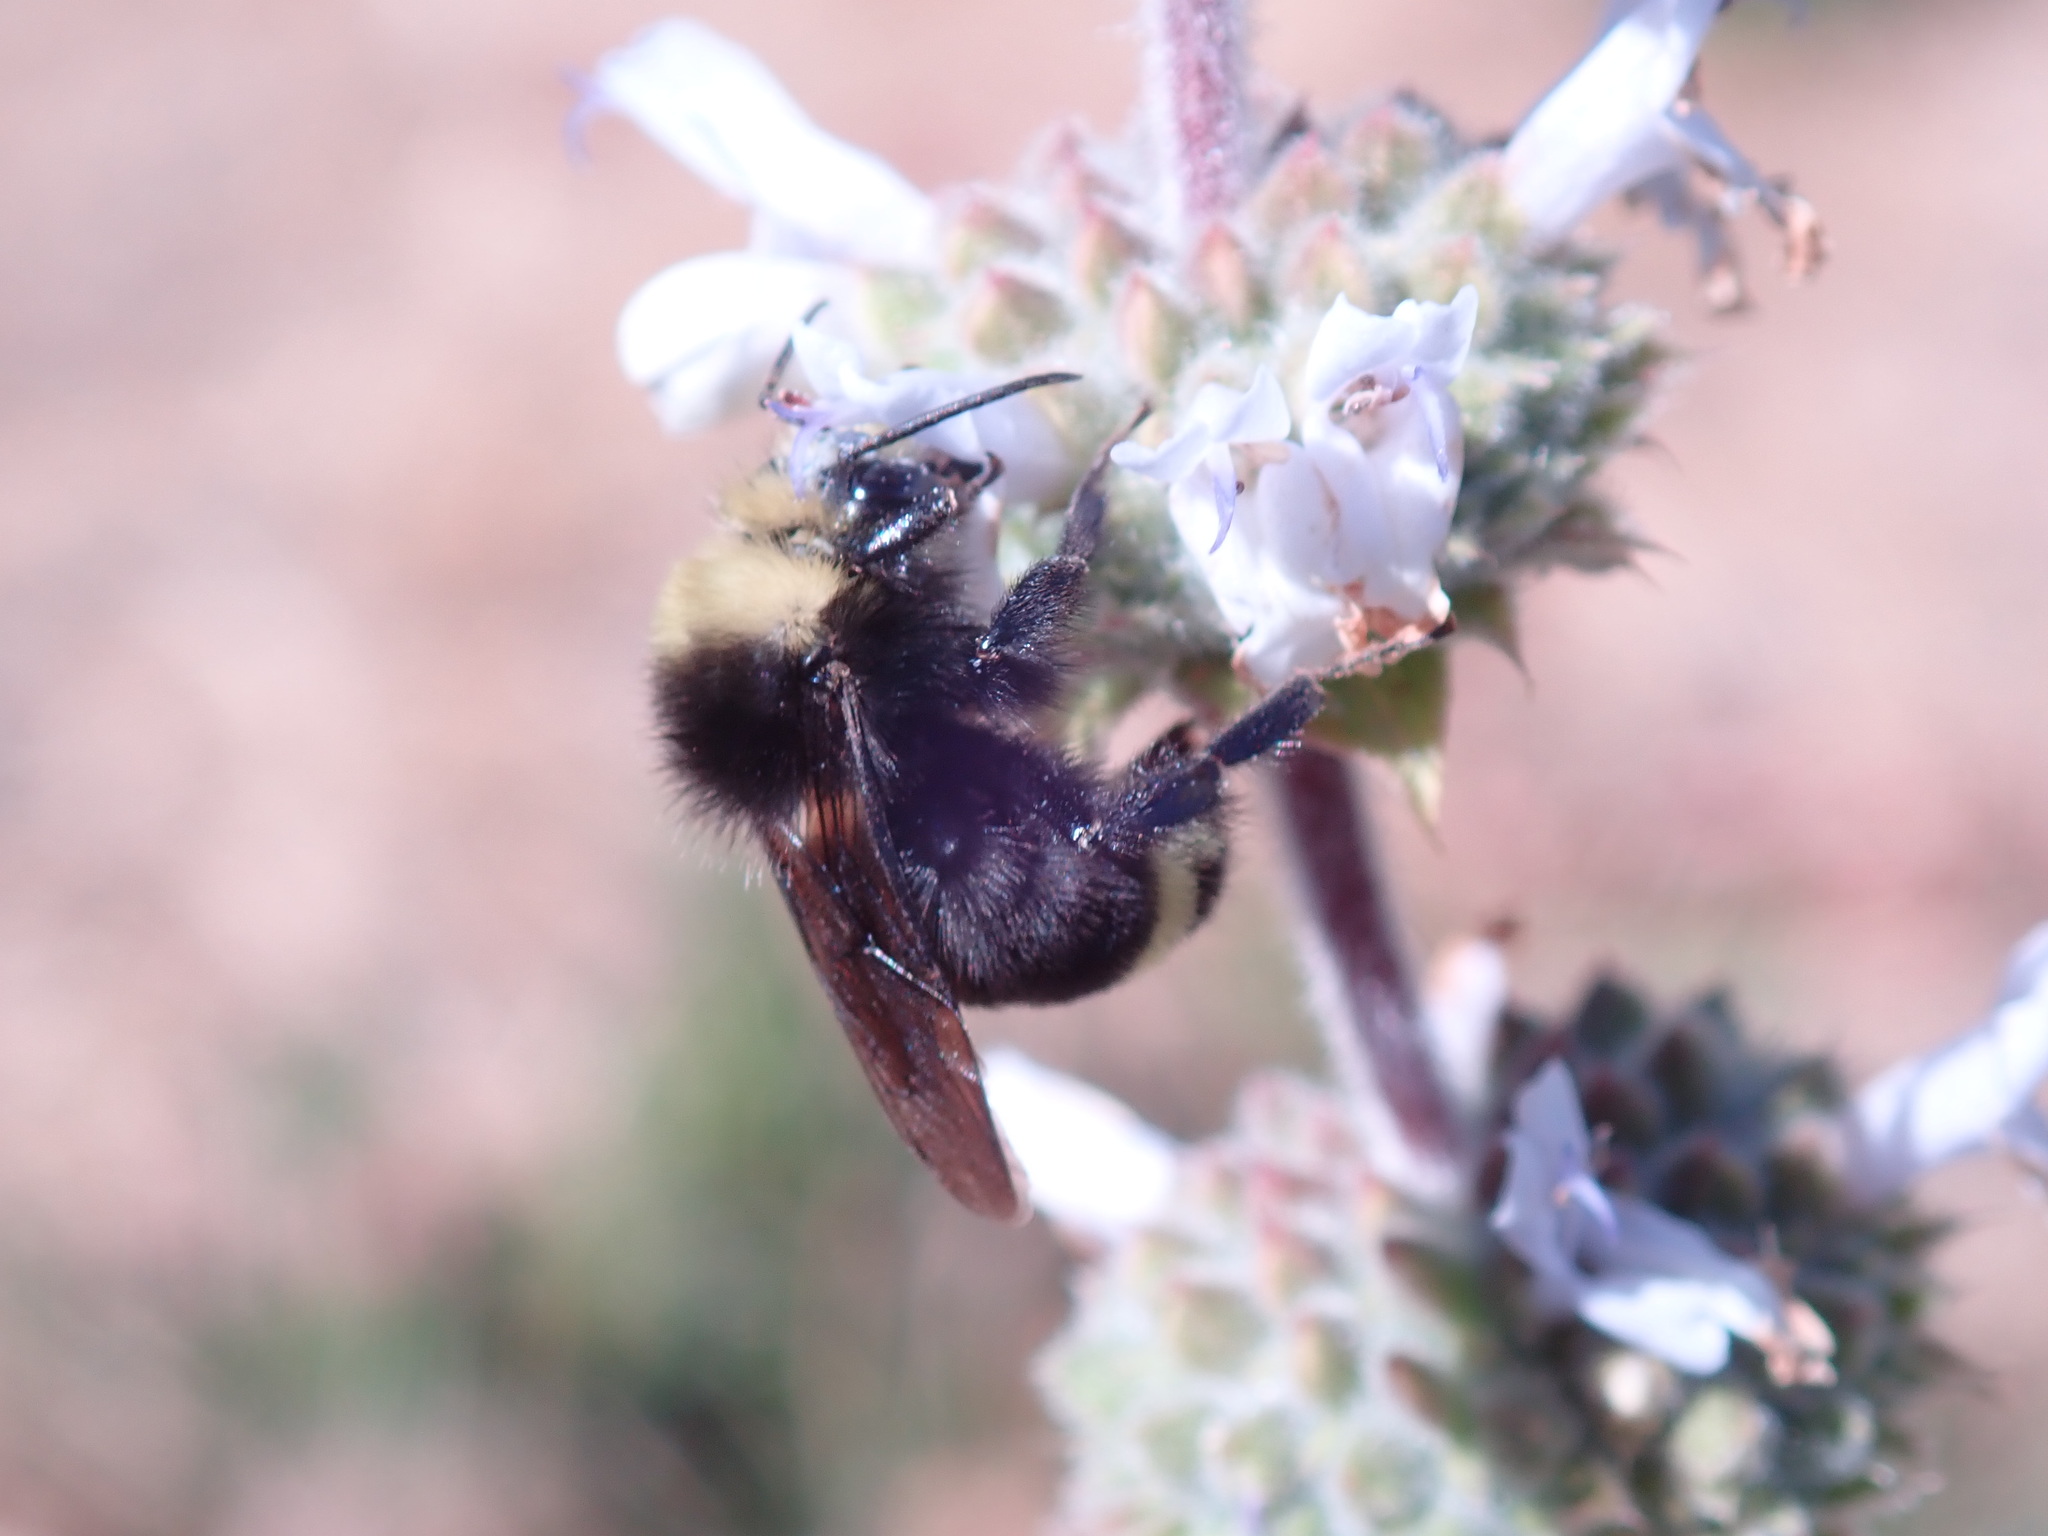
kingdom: Animalia
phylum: Arthropoda
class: Insecta
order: Hymenoptera
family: Apidae
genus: Bombus
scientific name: Bombus vosnesenskii
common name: Vosnesensky bumble bee
